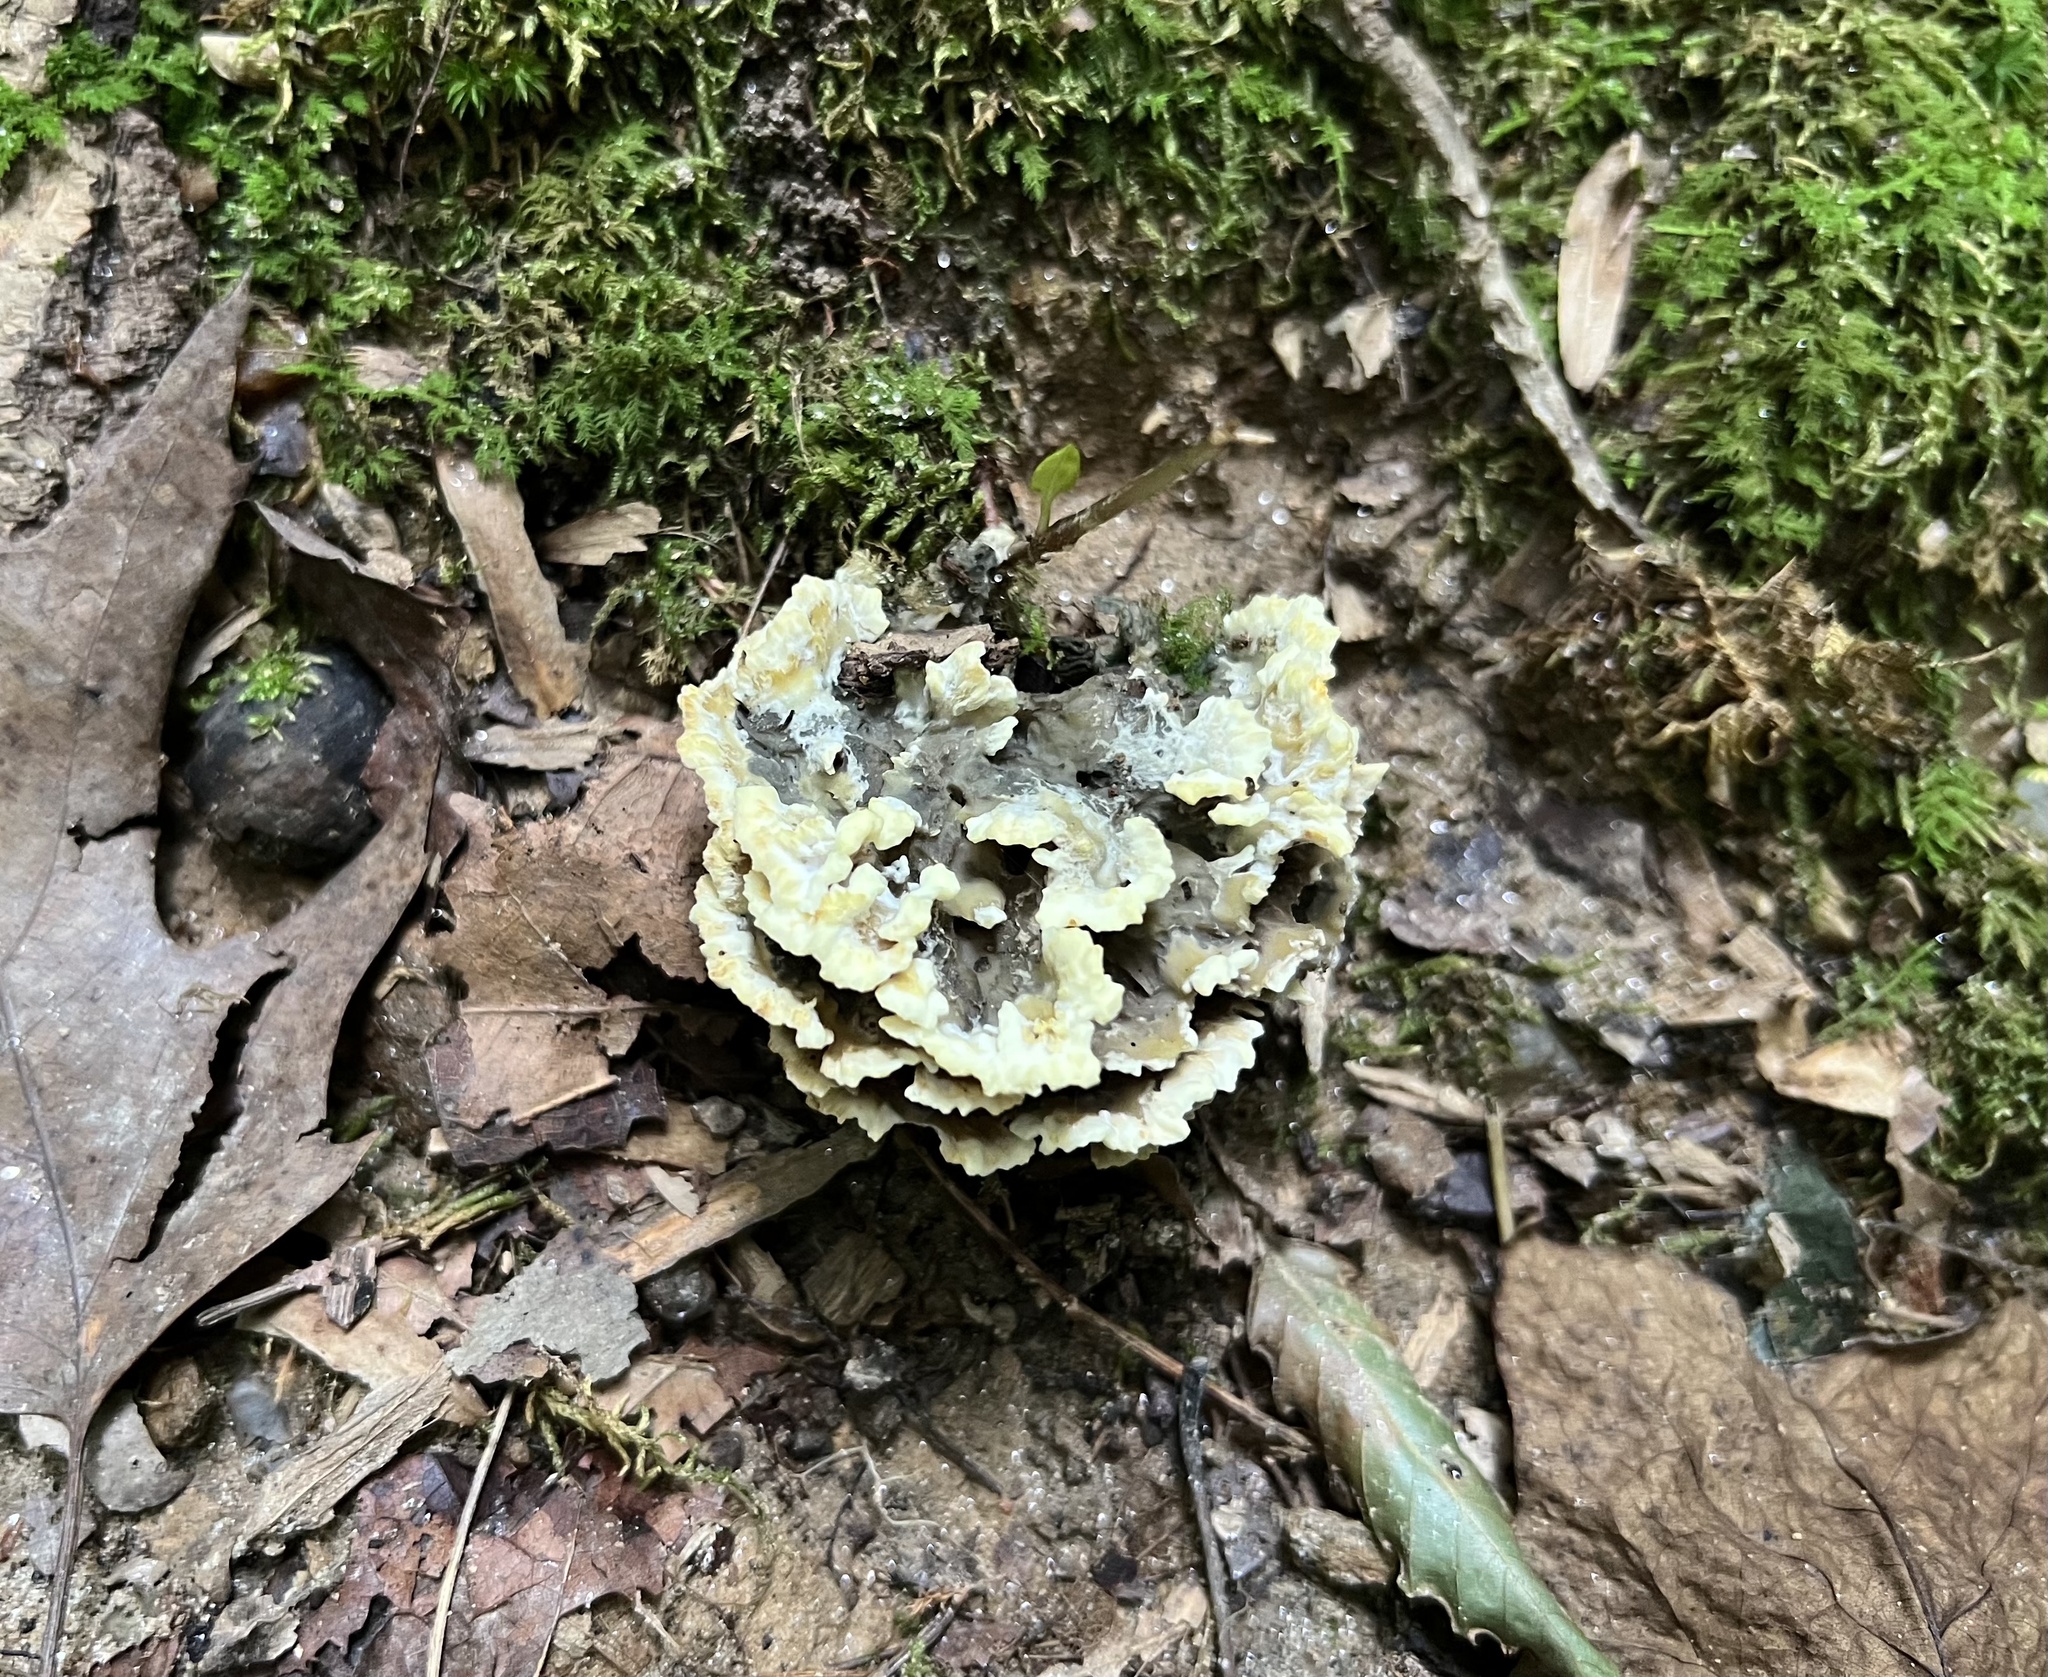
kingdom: Fungi
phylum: Basidiomycota
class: Agaricomycetes
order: Thelephorales
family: Thelephoraceae
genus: Thelephora
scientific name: Thelephora vialis
